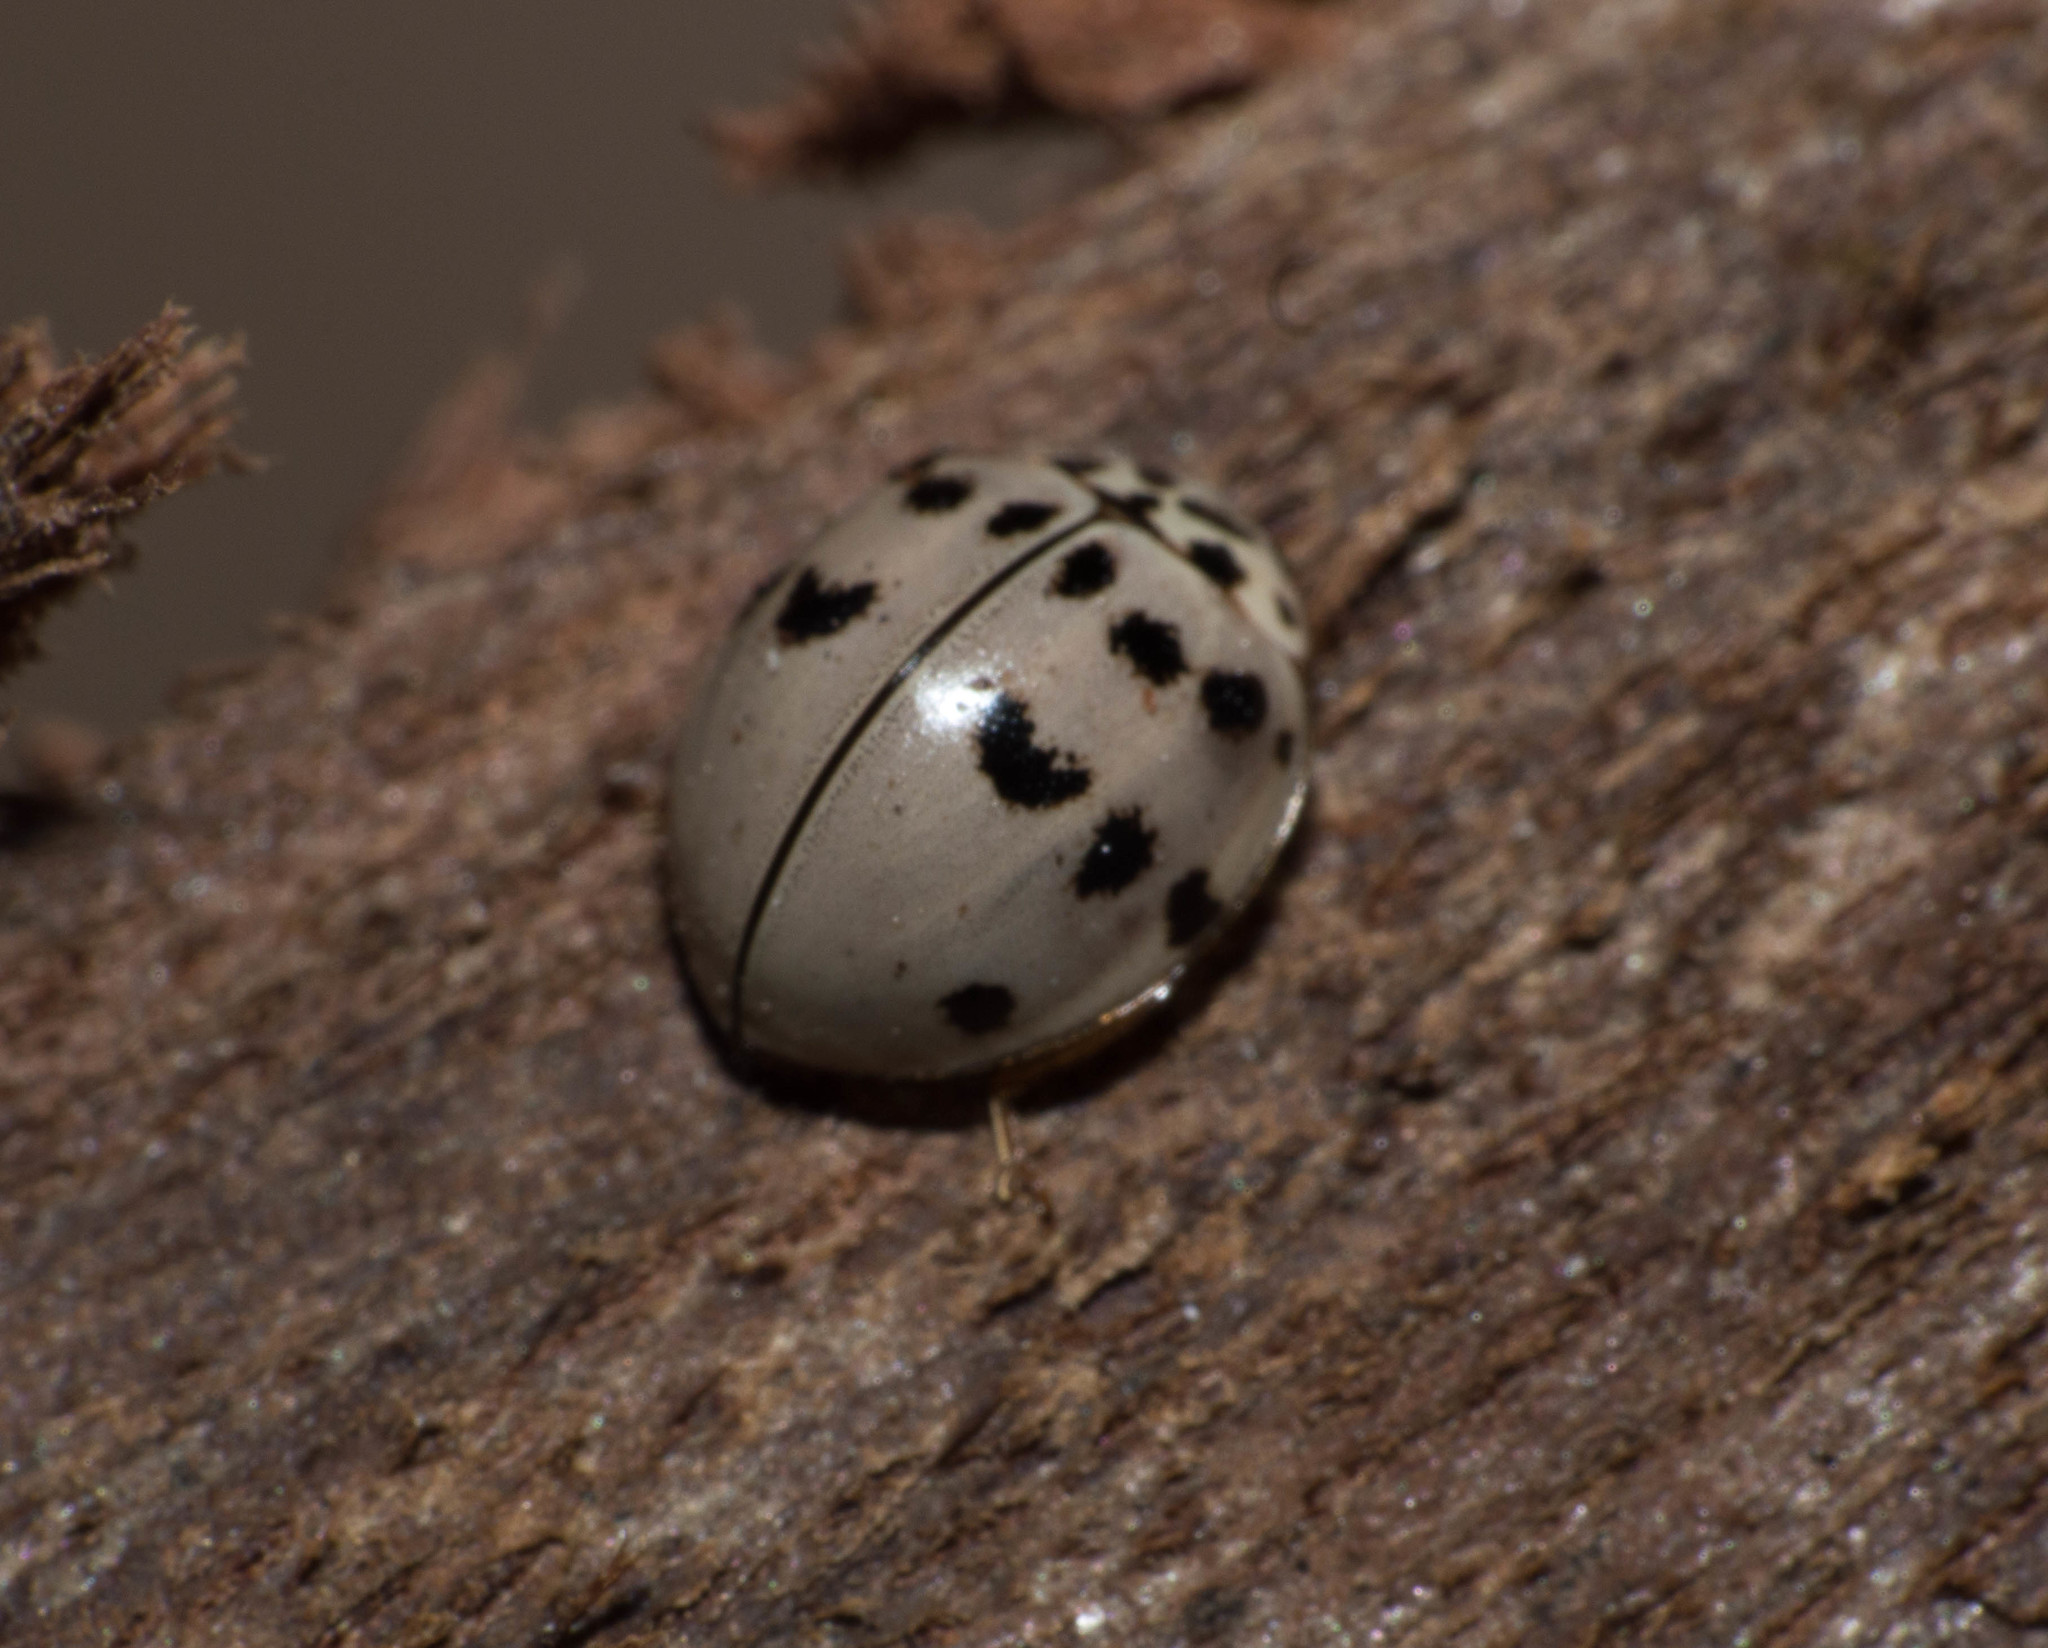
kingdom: Animalia
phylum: Arthropoda
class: Insecta
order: Coleoptera
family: Coccinellidae
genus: Olla
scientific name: Olla v-nigrum
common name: Ashy gray lady beetle
